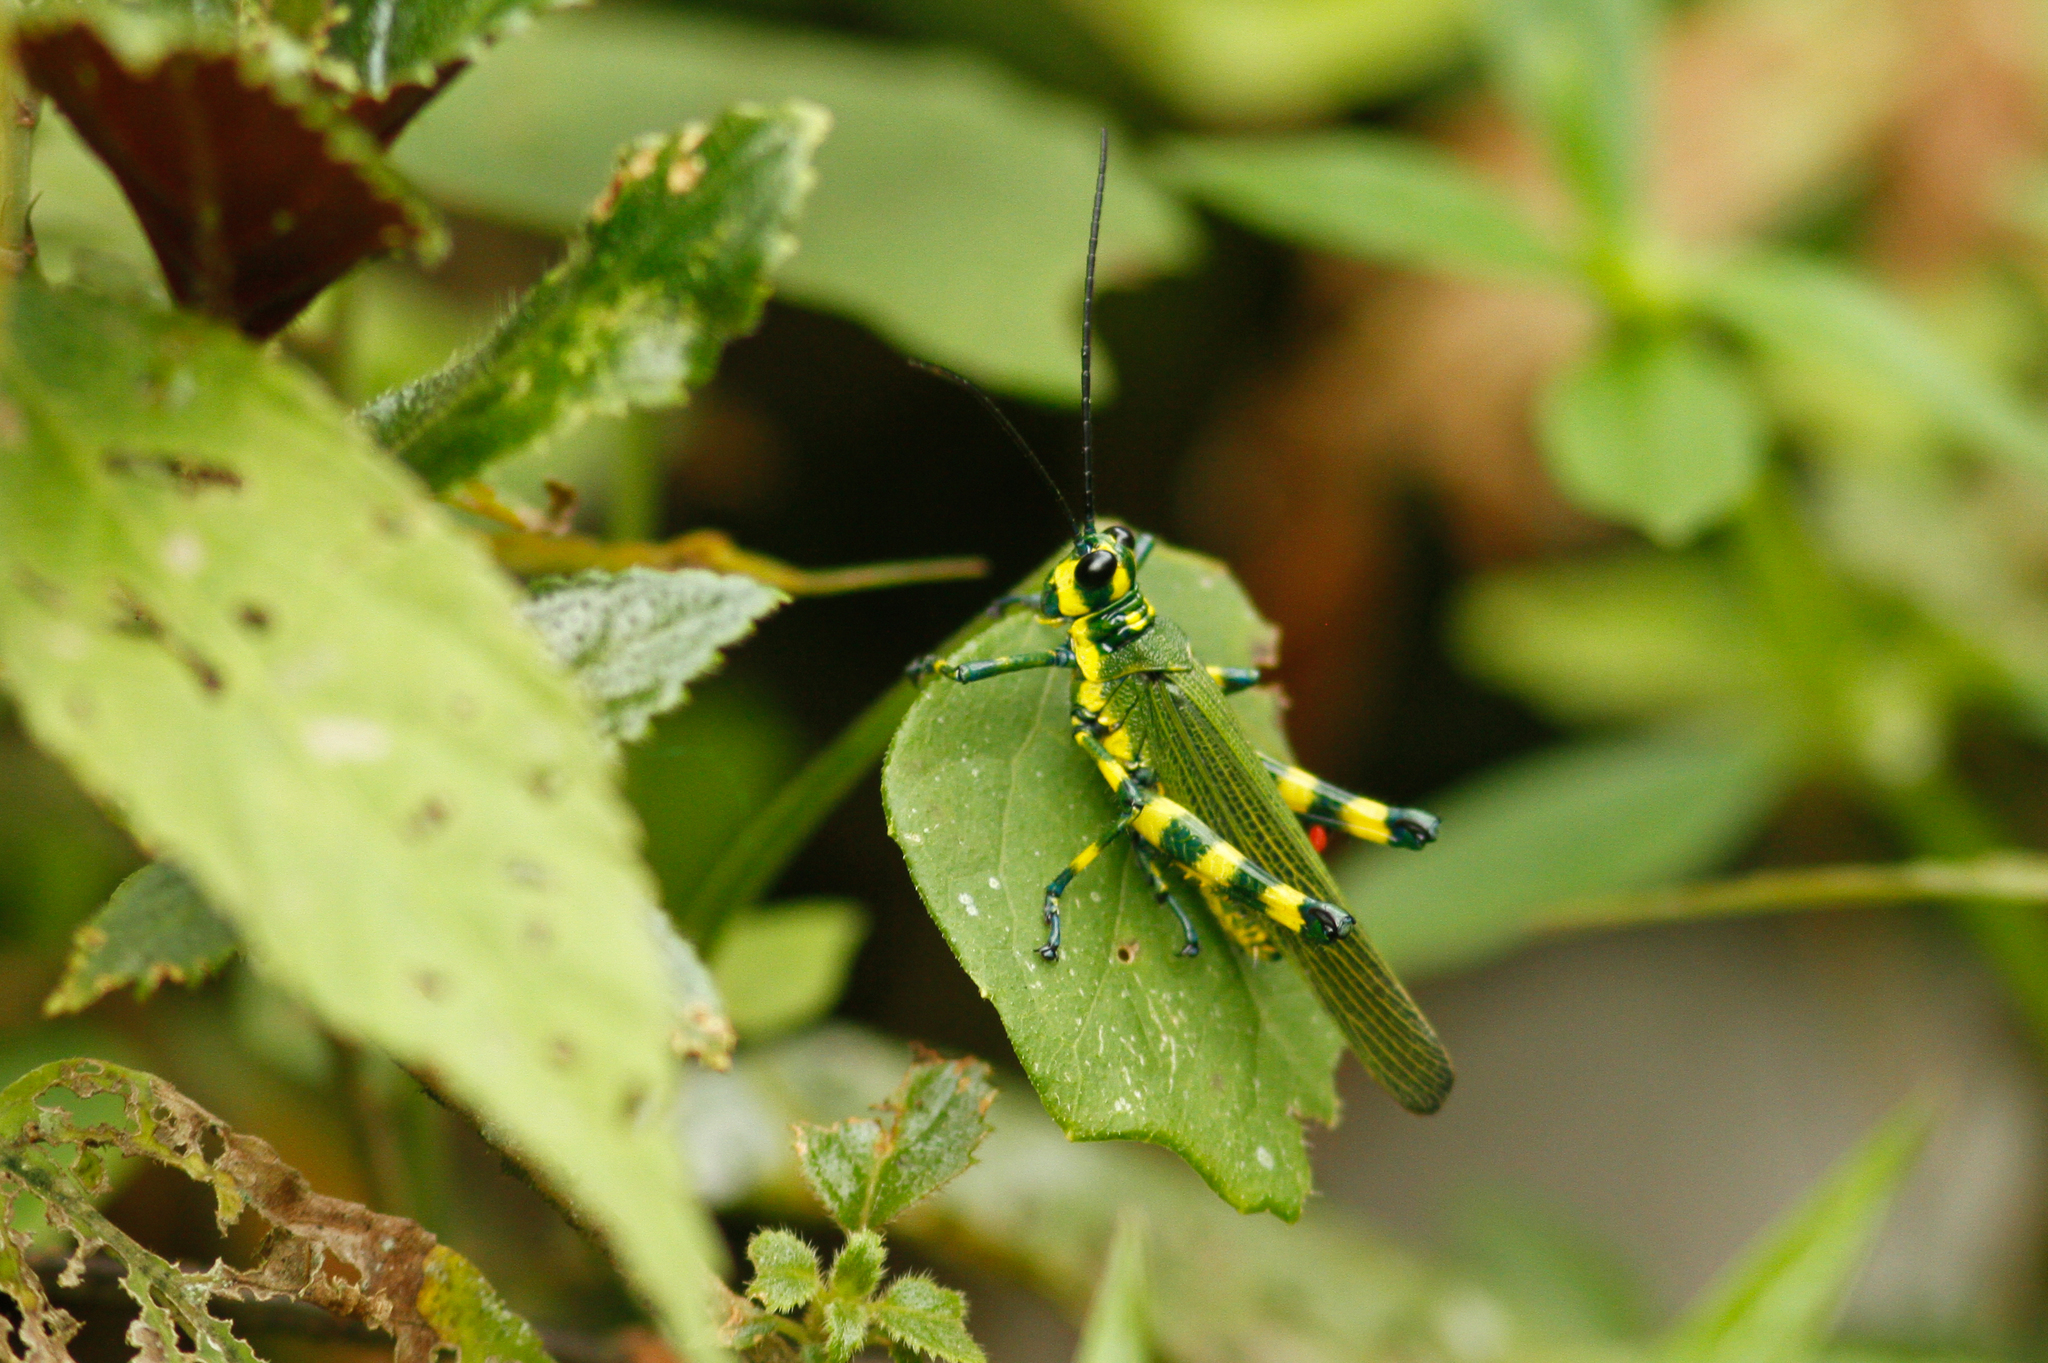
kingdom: Animalia
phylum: Arthropoda
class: Insecta
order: Orthoptera
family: Romaleidae
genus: Chromacris
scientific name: Chromacris psittacus
